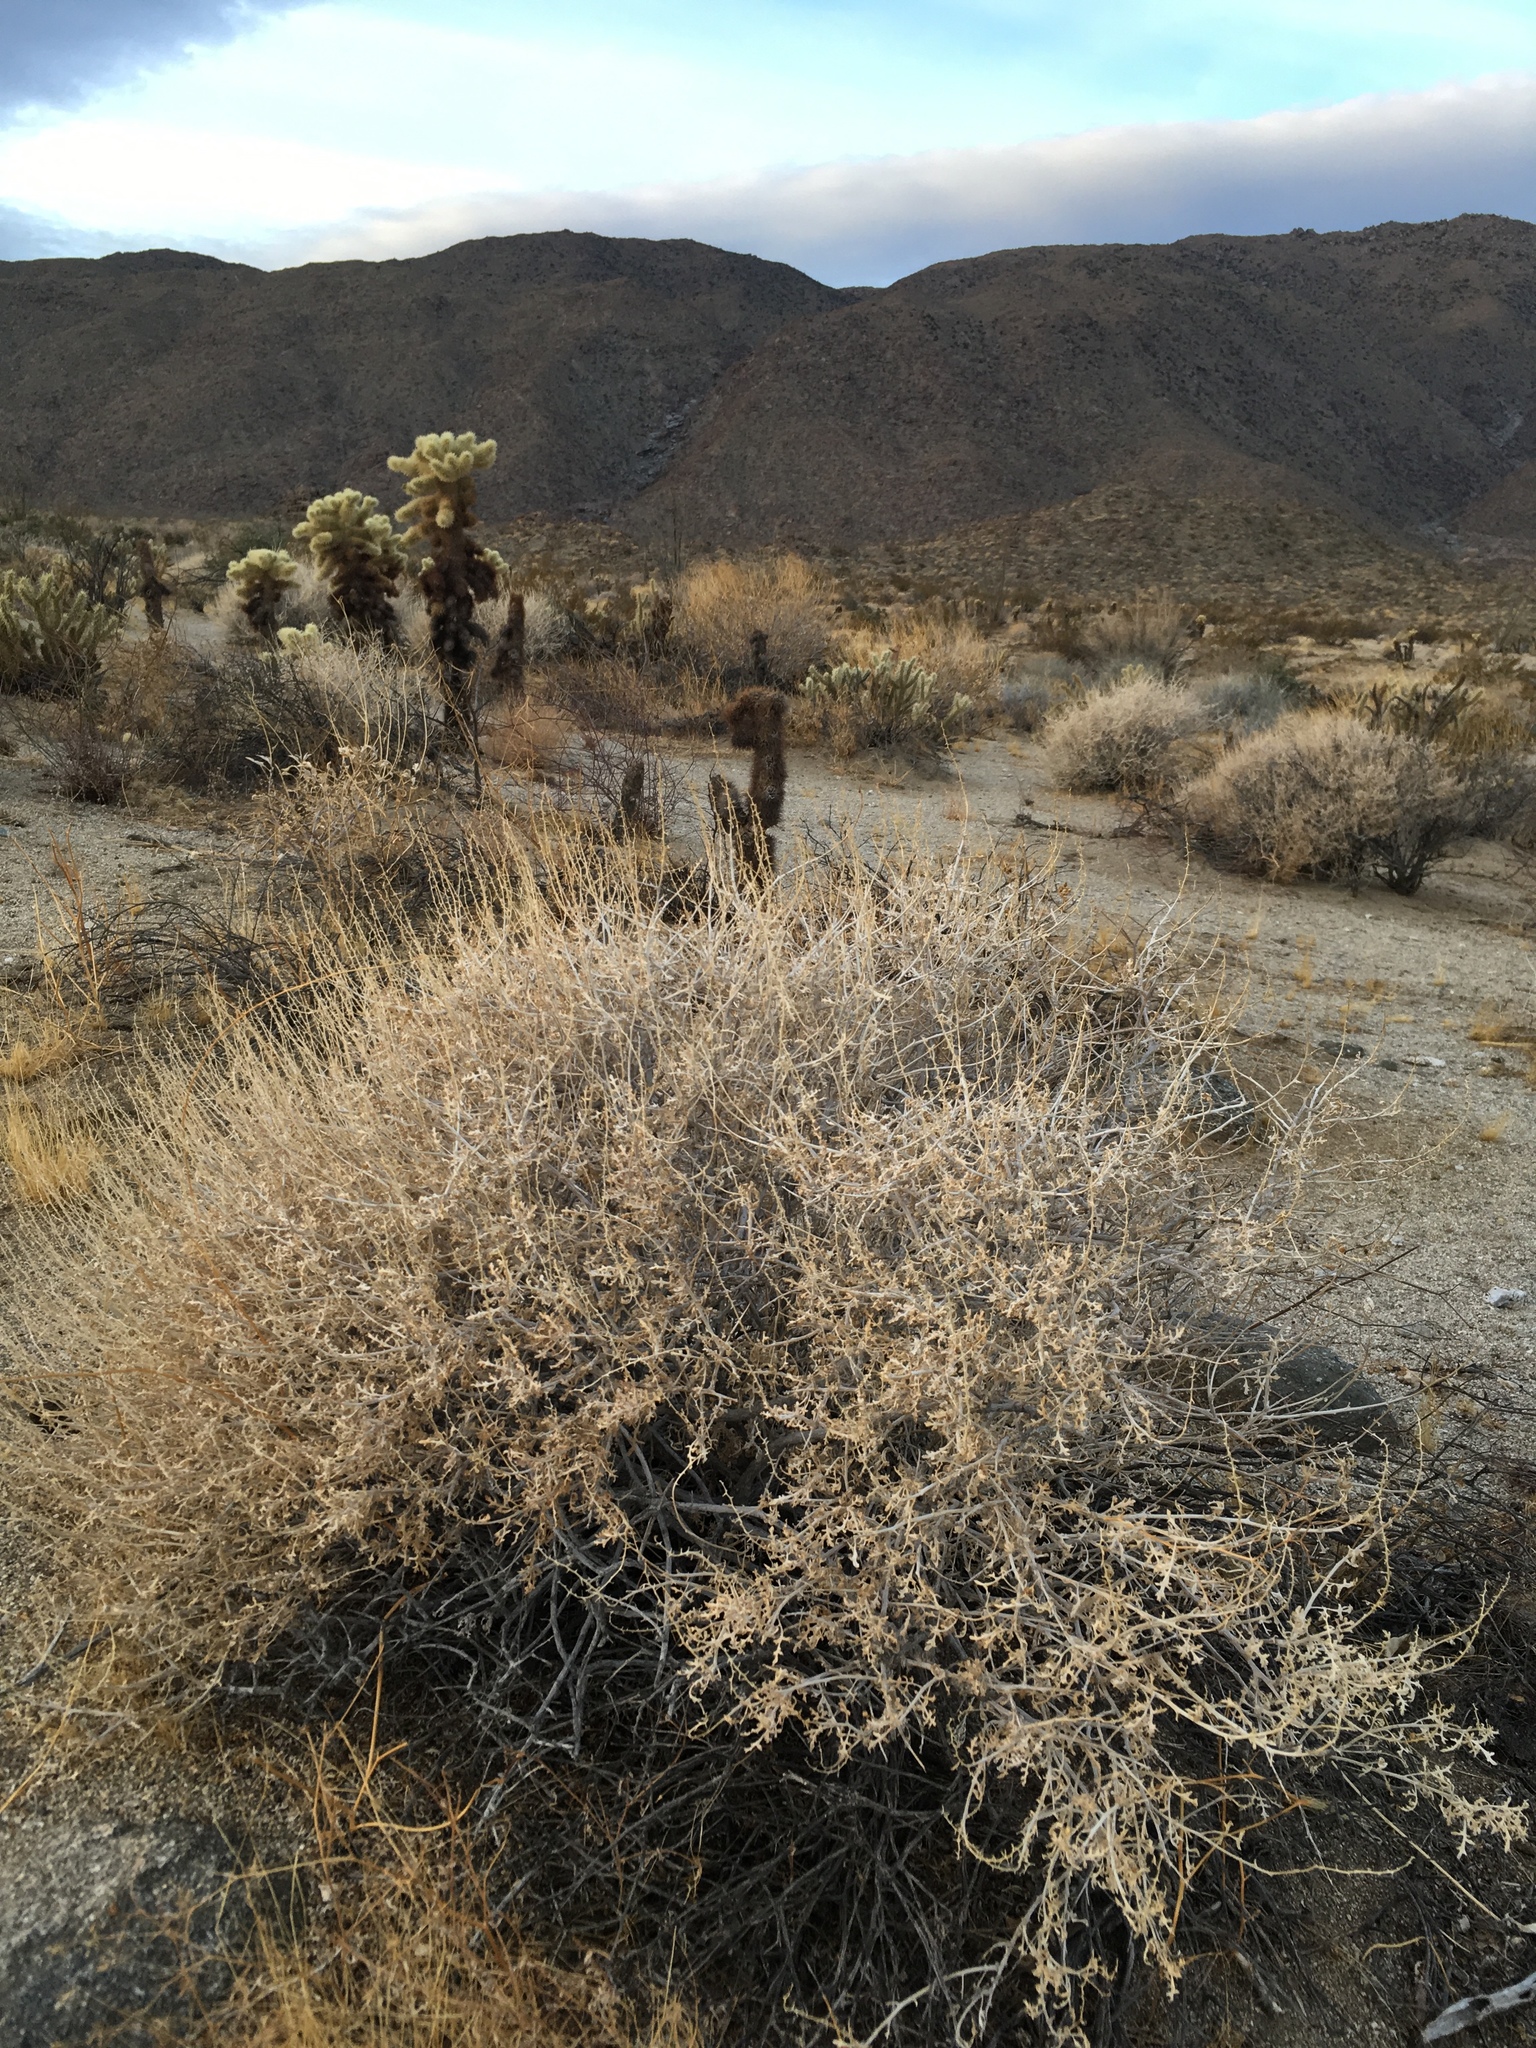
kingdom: Plantae
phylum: Tracheophyta
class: Magnoliopsida
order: Asterales
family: Asteraceae
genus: Ambrosia
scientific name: Ambrosia dumosa
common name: Bur-sage
